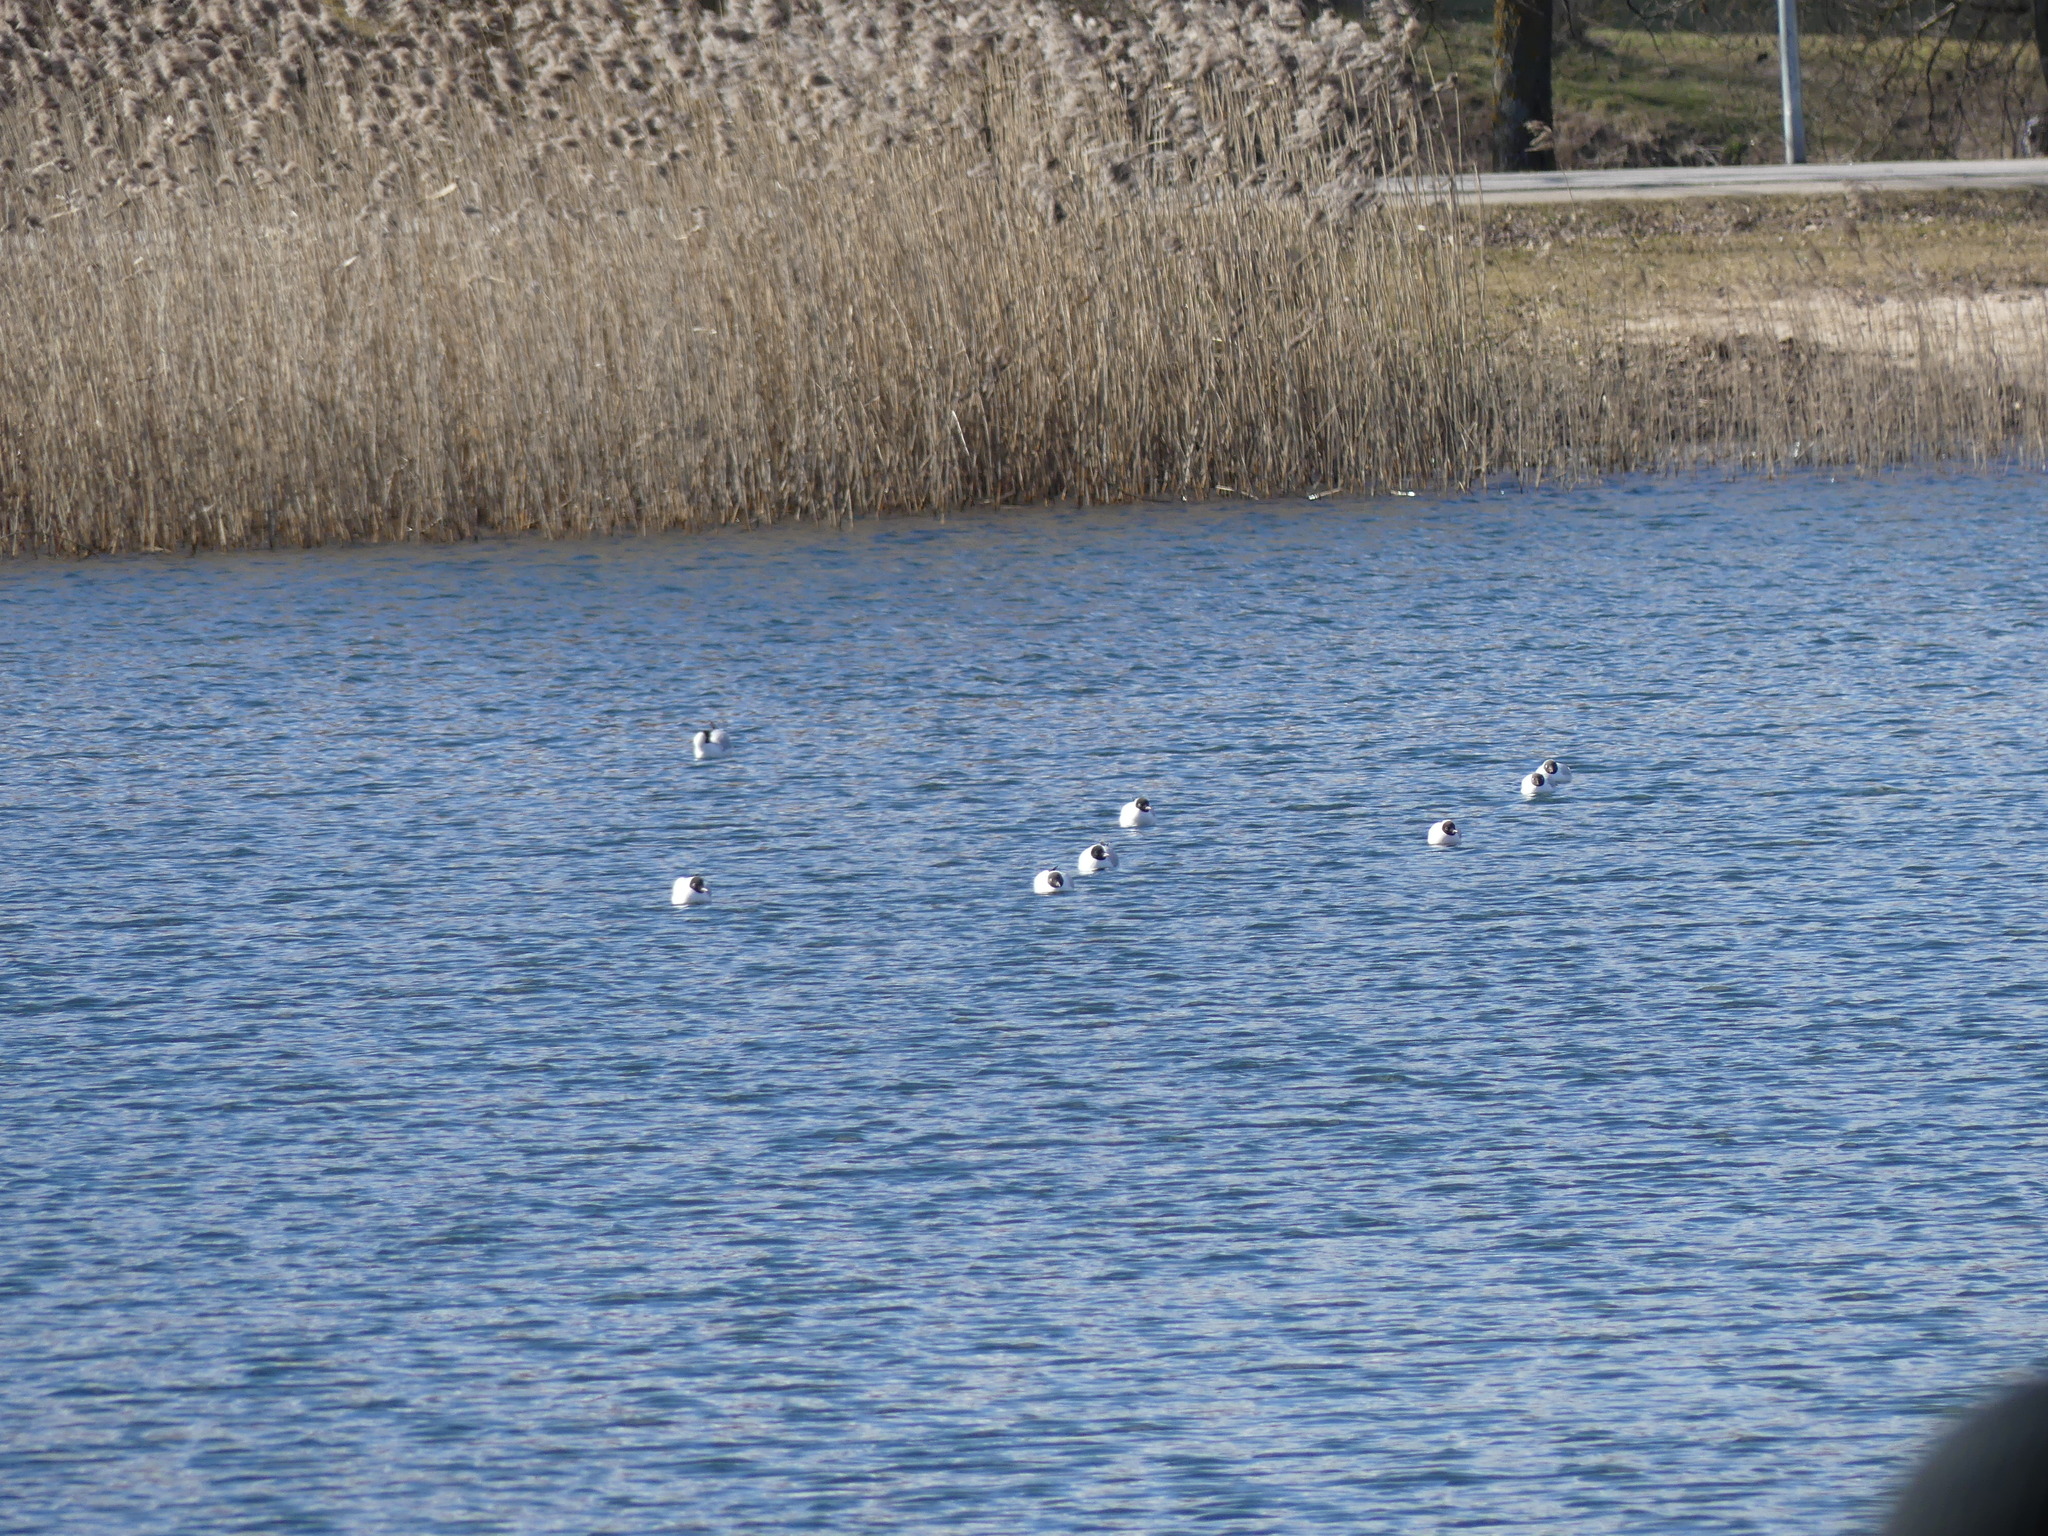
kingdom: Animalia
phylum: Chordata
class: Aves
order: Charadriiformes
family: Laridae
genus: Chroicocephalus
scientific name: Chroicocephalus ridibundus
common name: Black-headed gull
